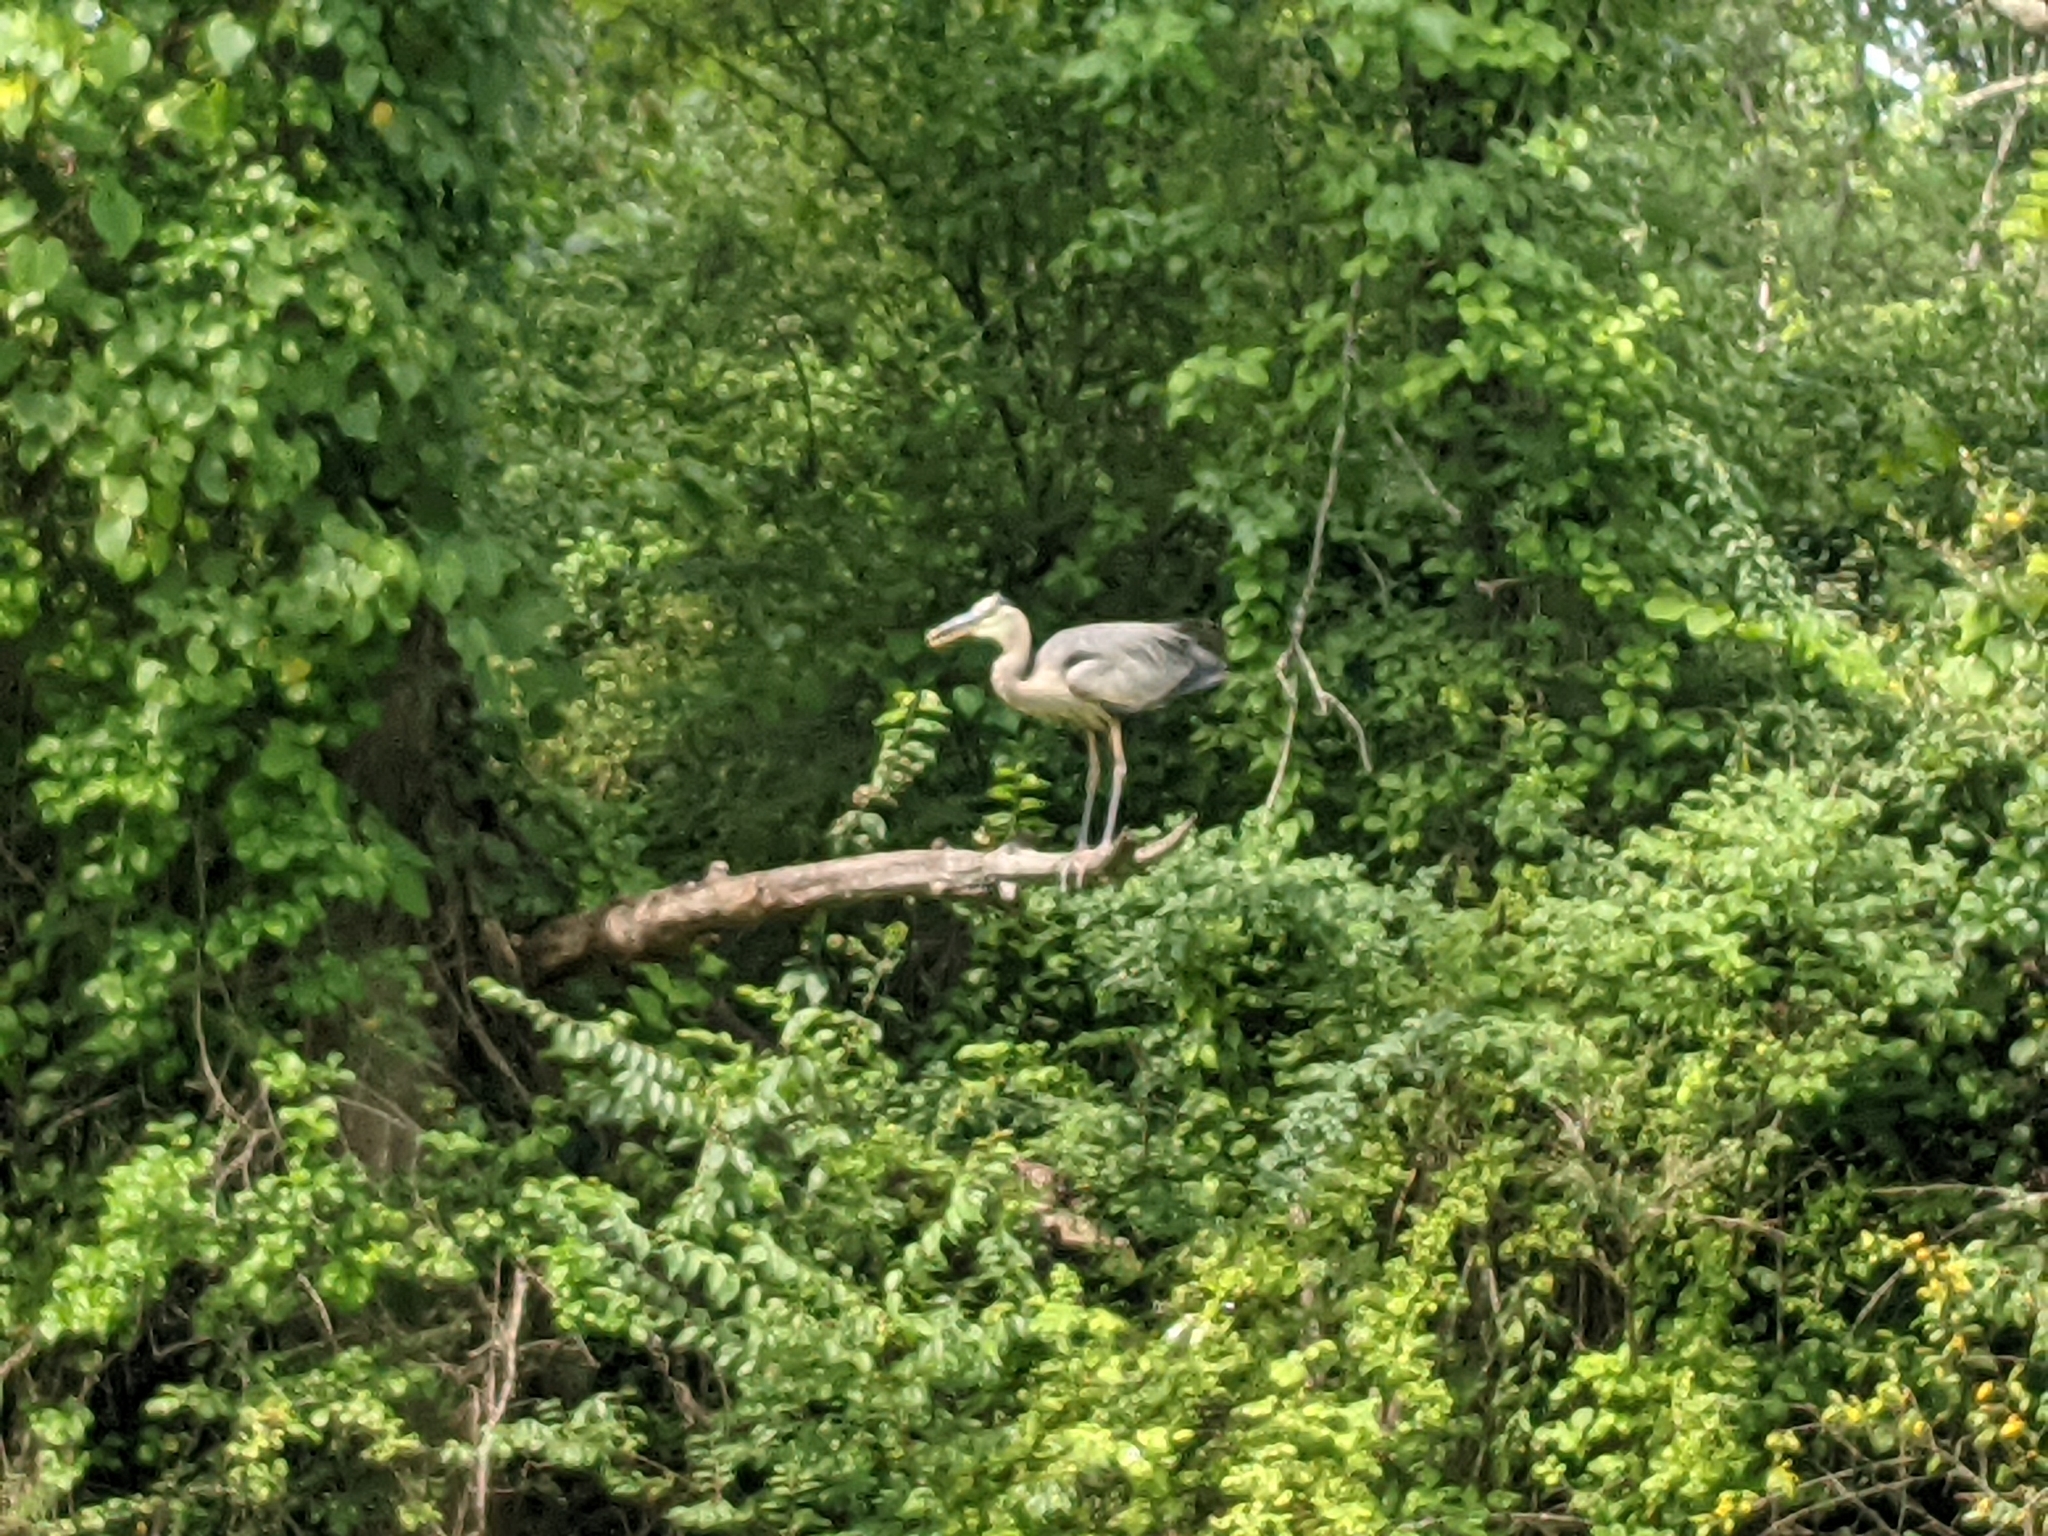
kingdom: Animalia
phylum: Chordata
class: Aves
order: Pelecaniformes
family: Ardeidae
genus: Ardea
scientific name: Ardea herodias
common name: Great blue heron
